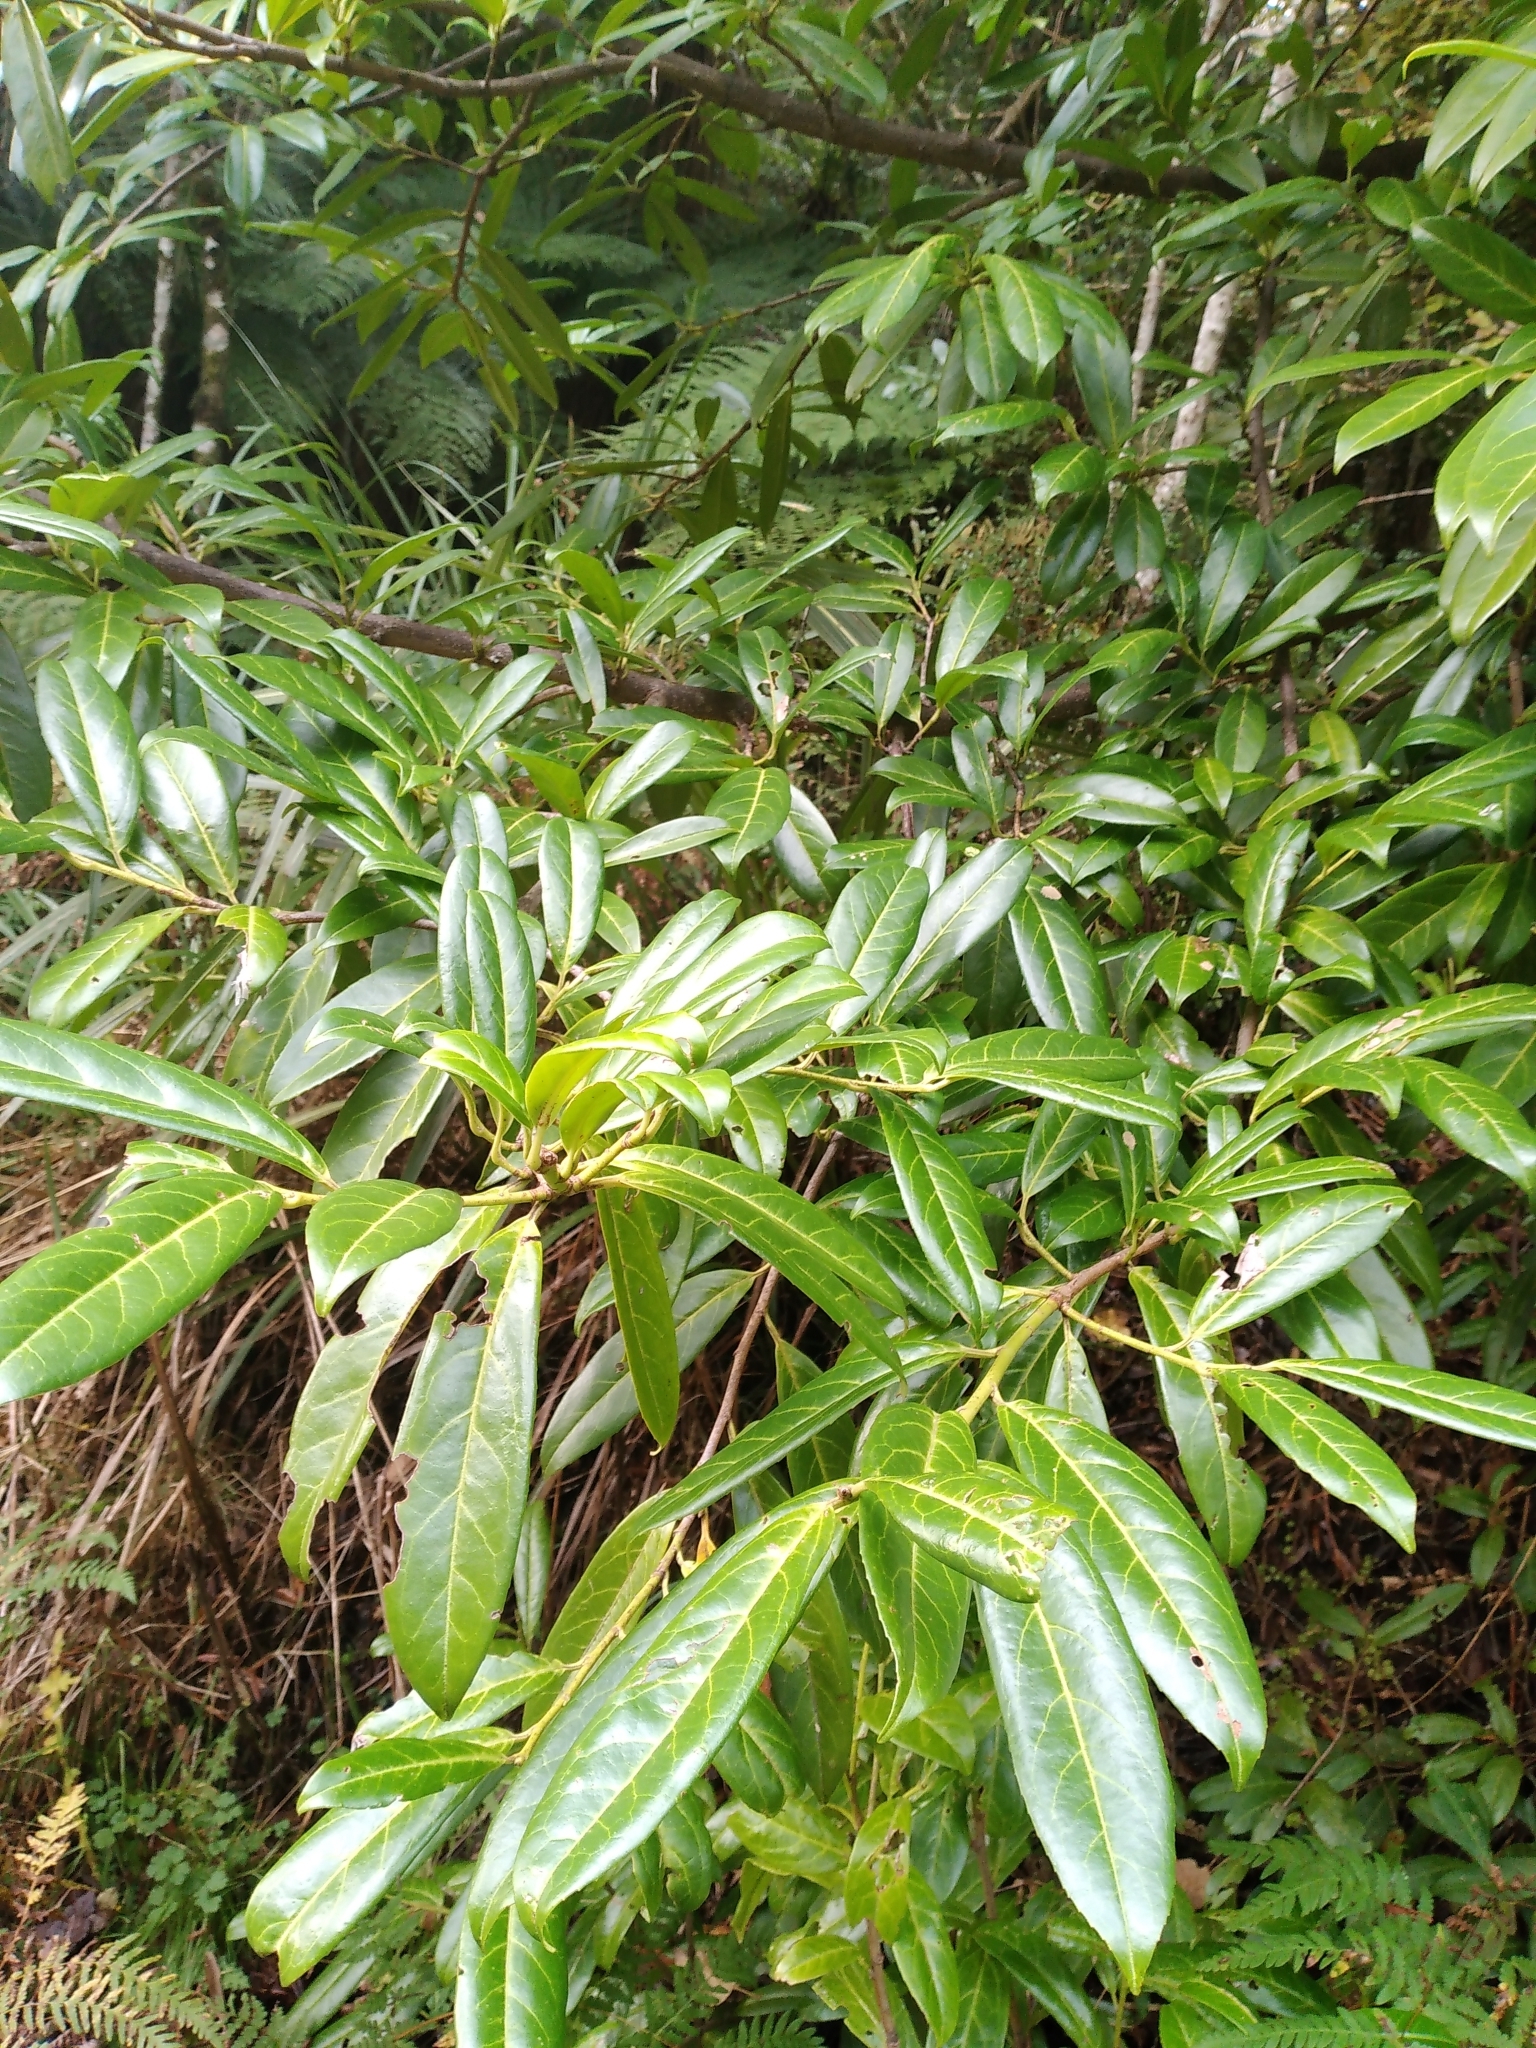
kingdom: Plantae
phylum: Tracheophyta
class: Magnoliopsida
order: Rosales
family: Rosaceae
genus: Prunus
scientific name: Prunus laurocerasus
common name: Cherry laurel
